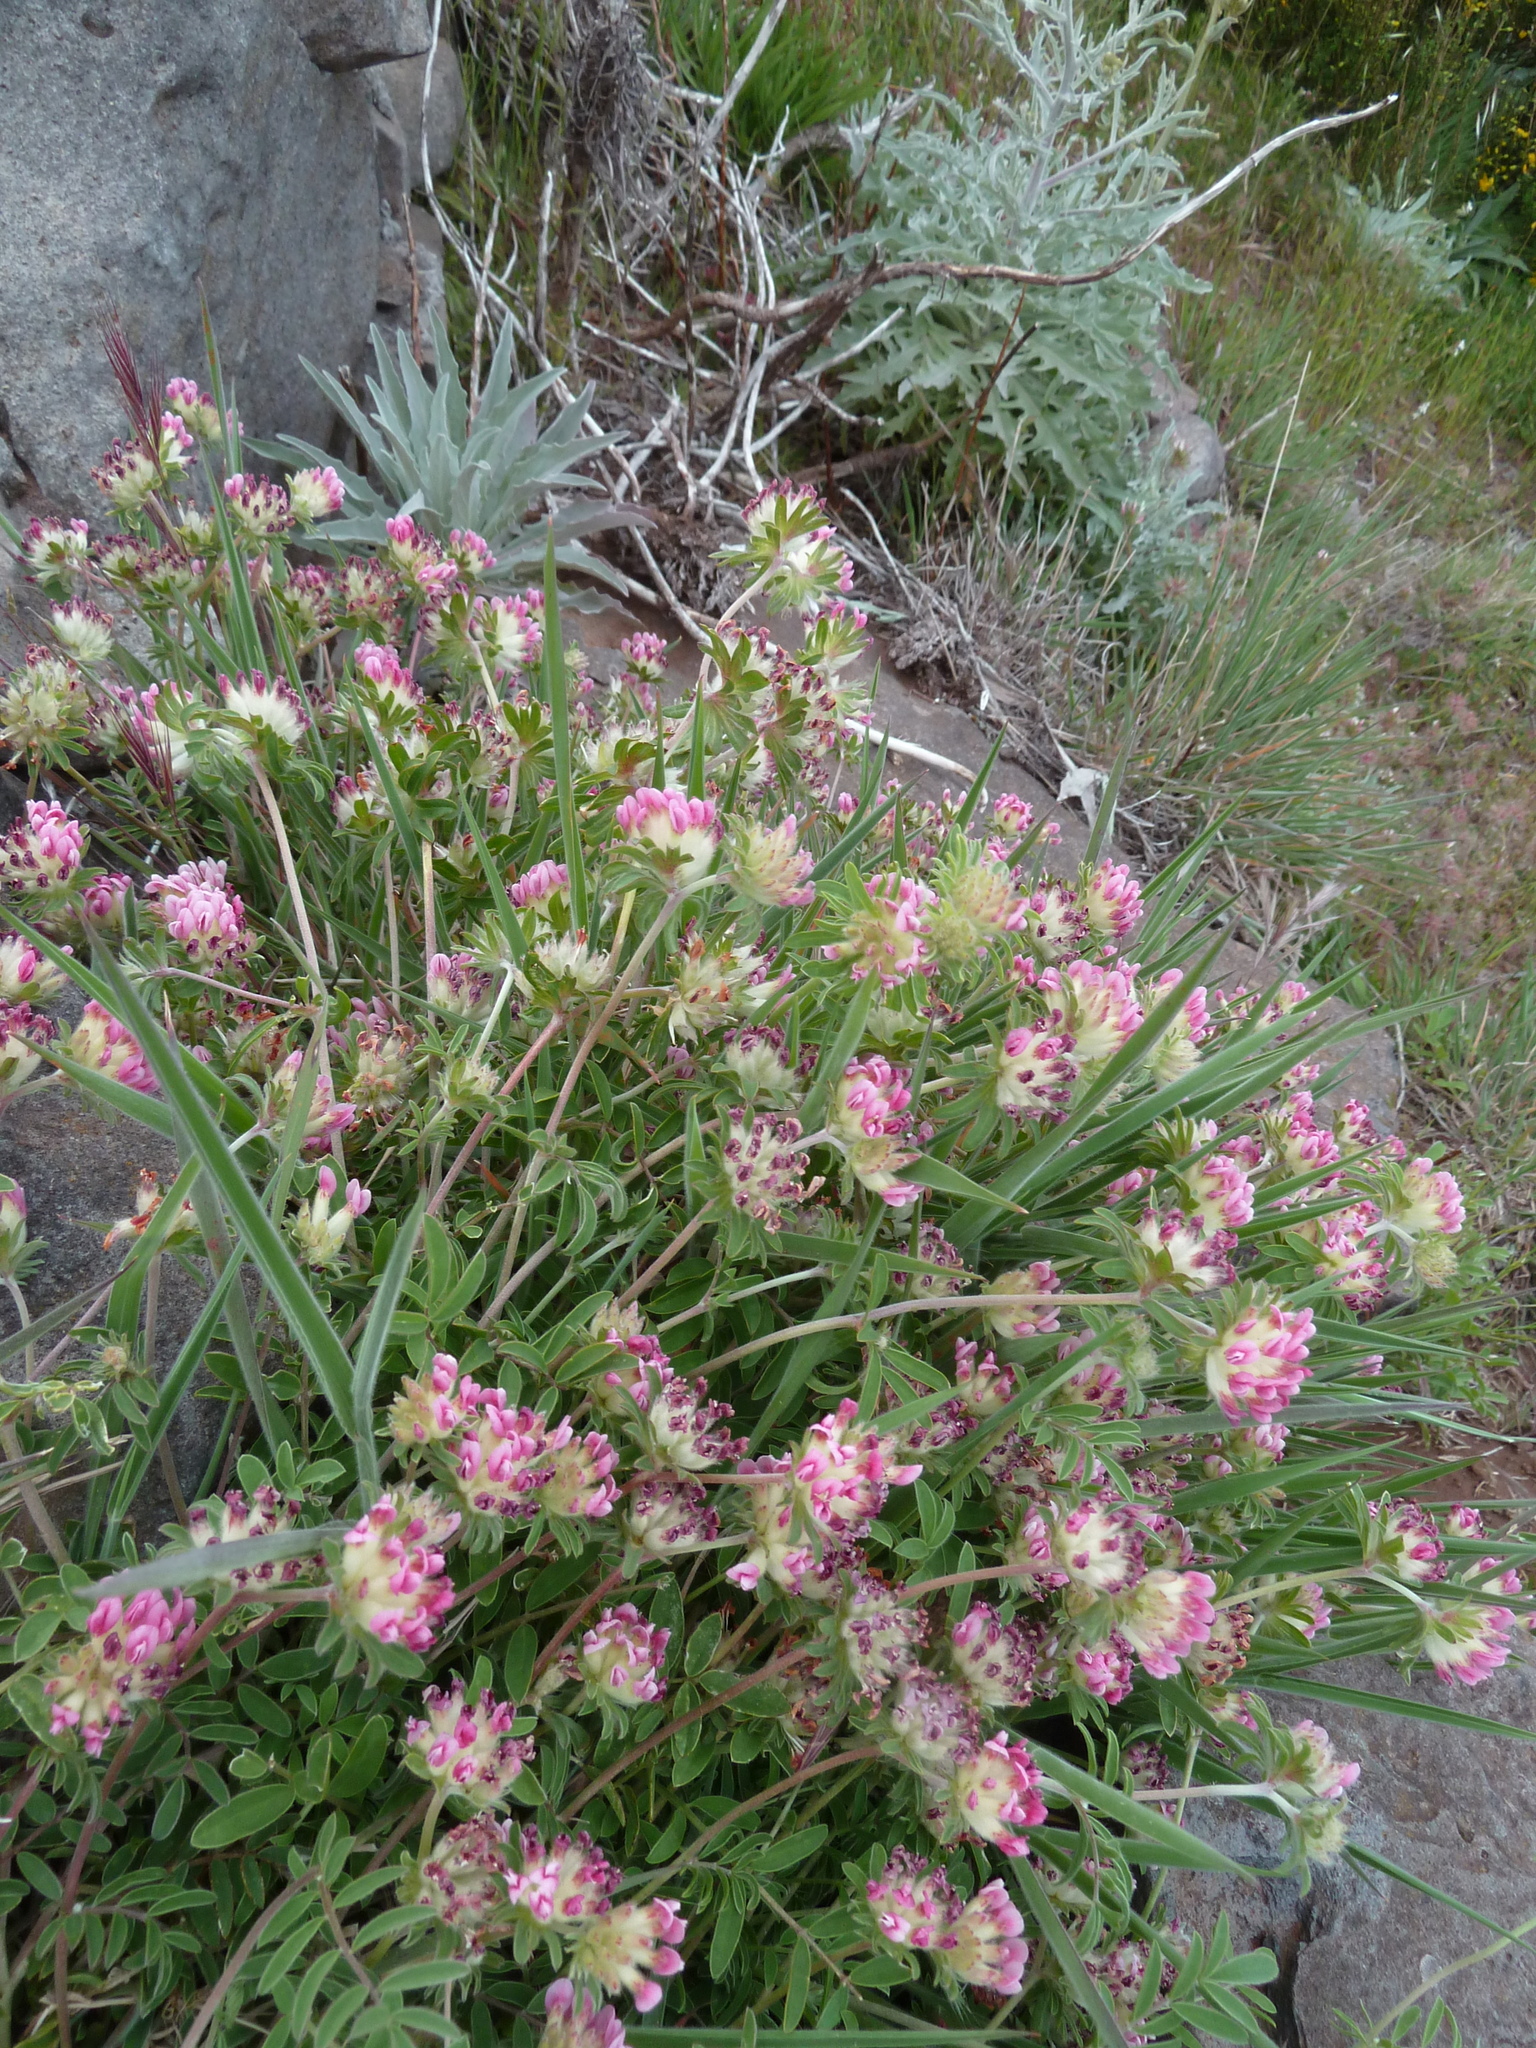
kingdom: Plantae
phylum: Tracheophyta
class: Magnoliopsida
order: Fabales
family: Fabaceae
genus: Anthyllis
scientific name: Anthyllis lemanniana
